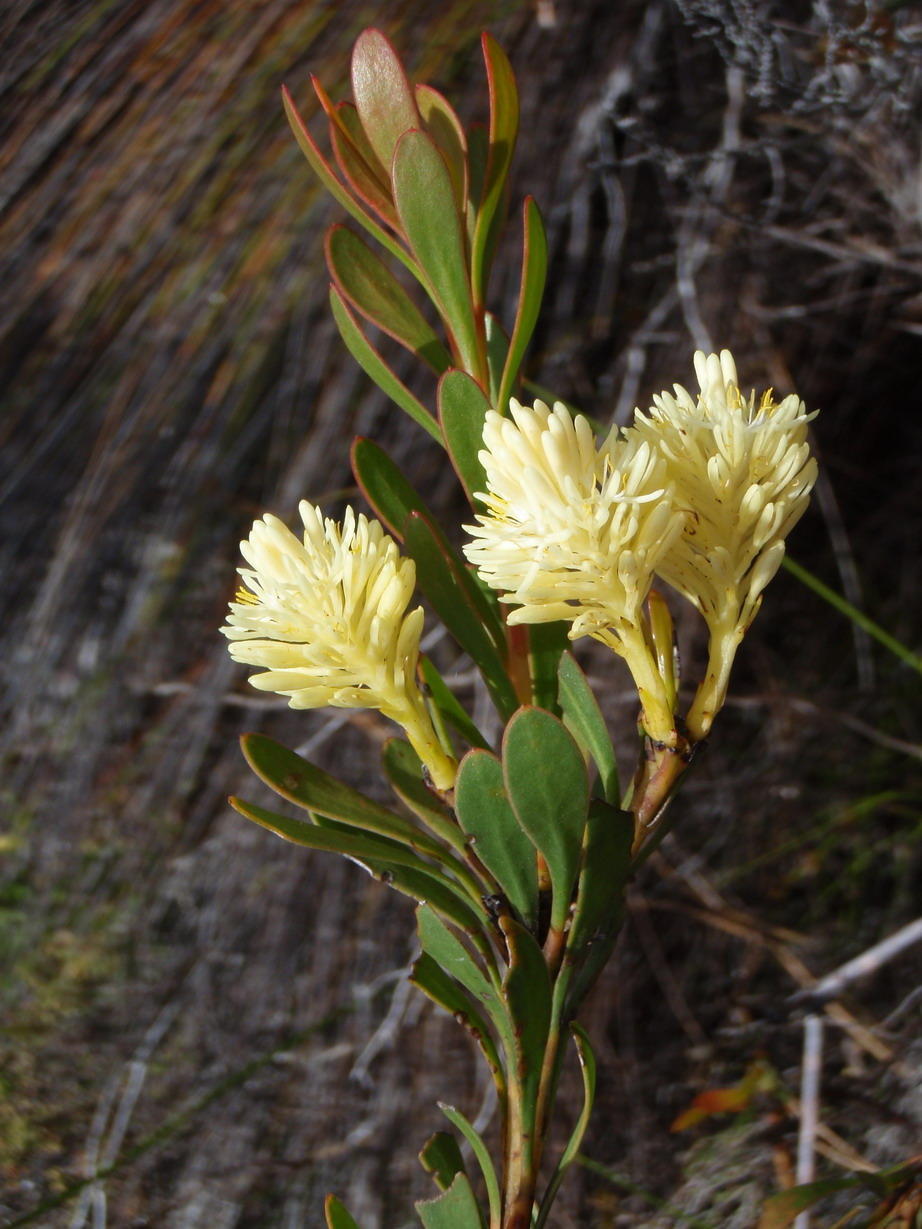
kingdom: Plantae
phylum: Tracheophyta
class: Magnoliopsida
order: Proteales
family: Proteaceae
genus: Aulax
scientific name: Aulax umbellata
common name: Broad-leaf featherbush
